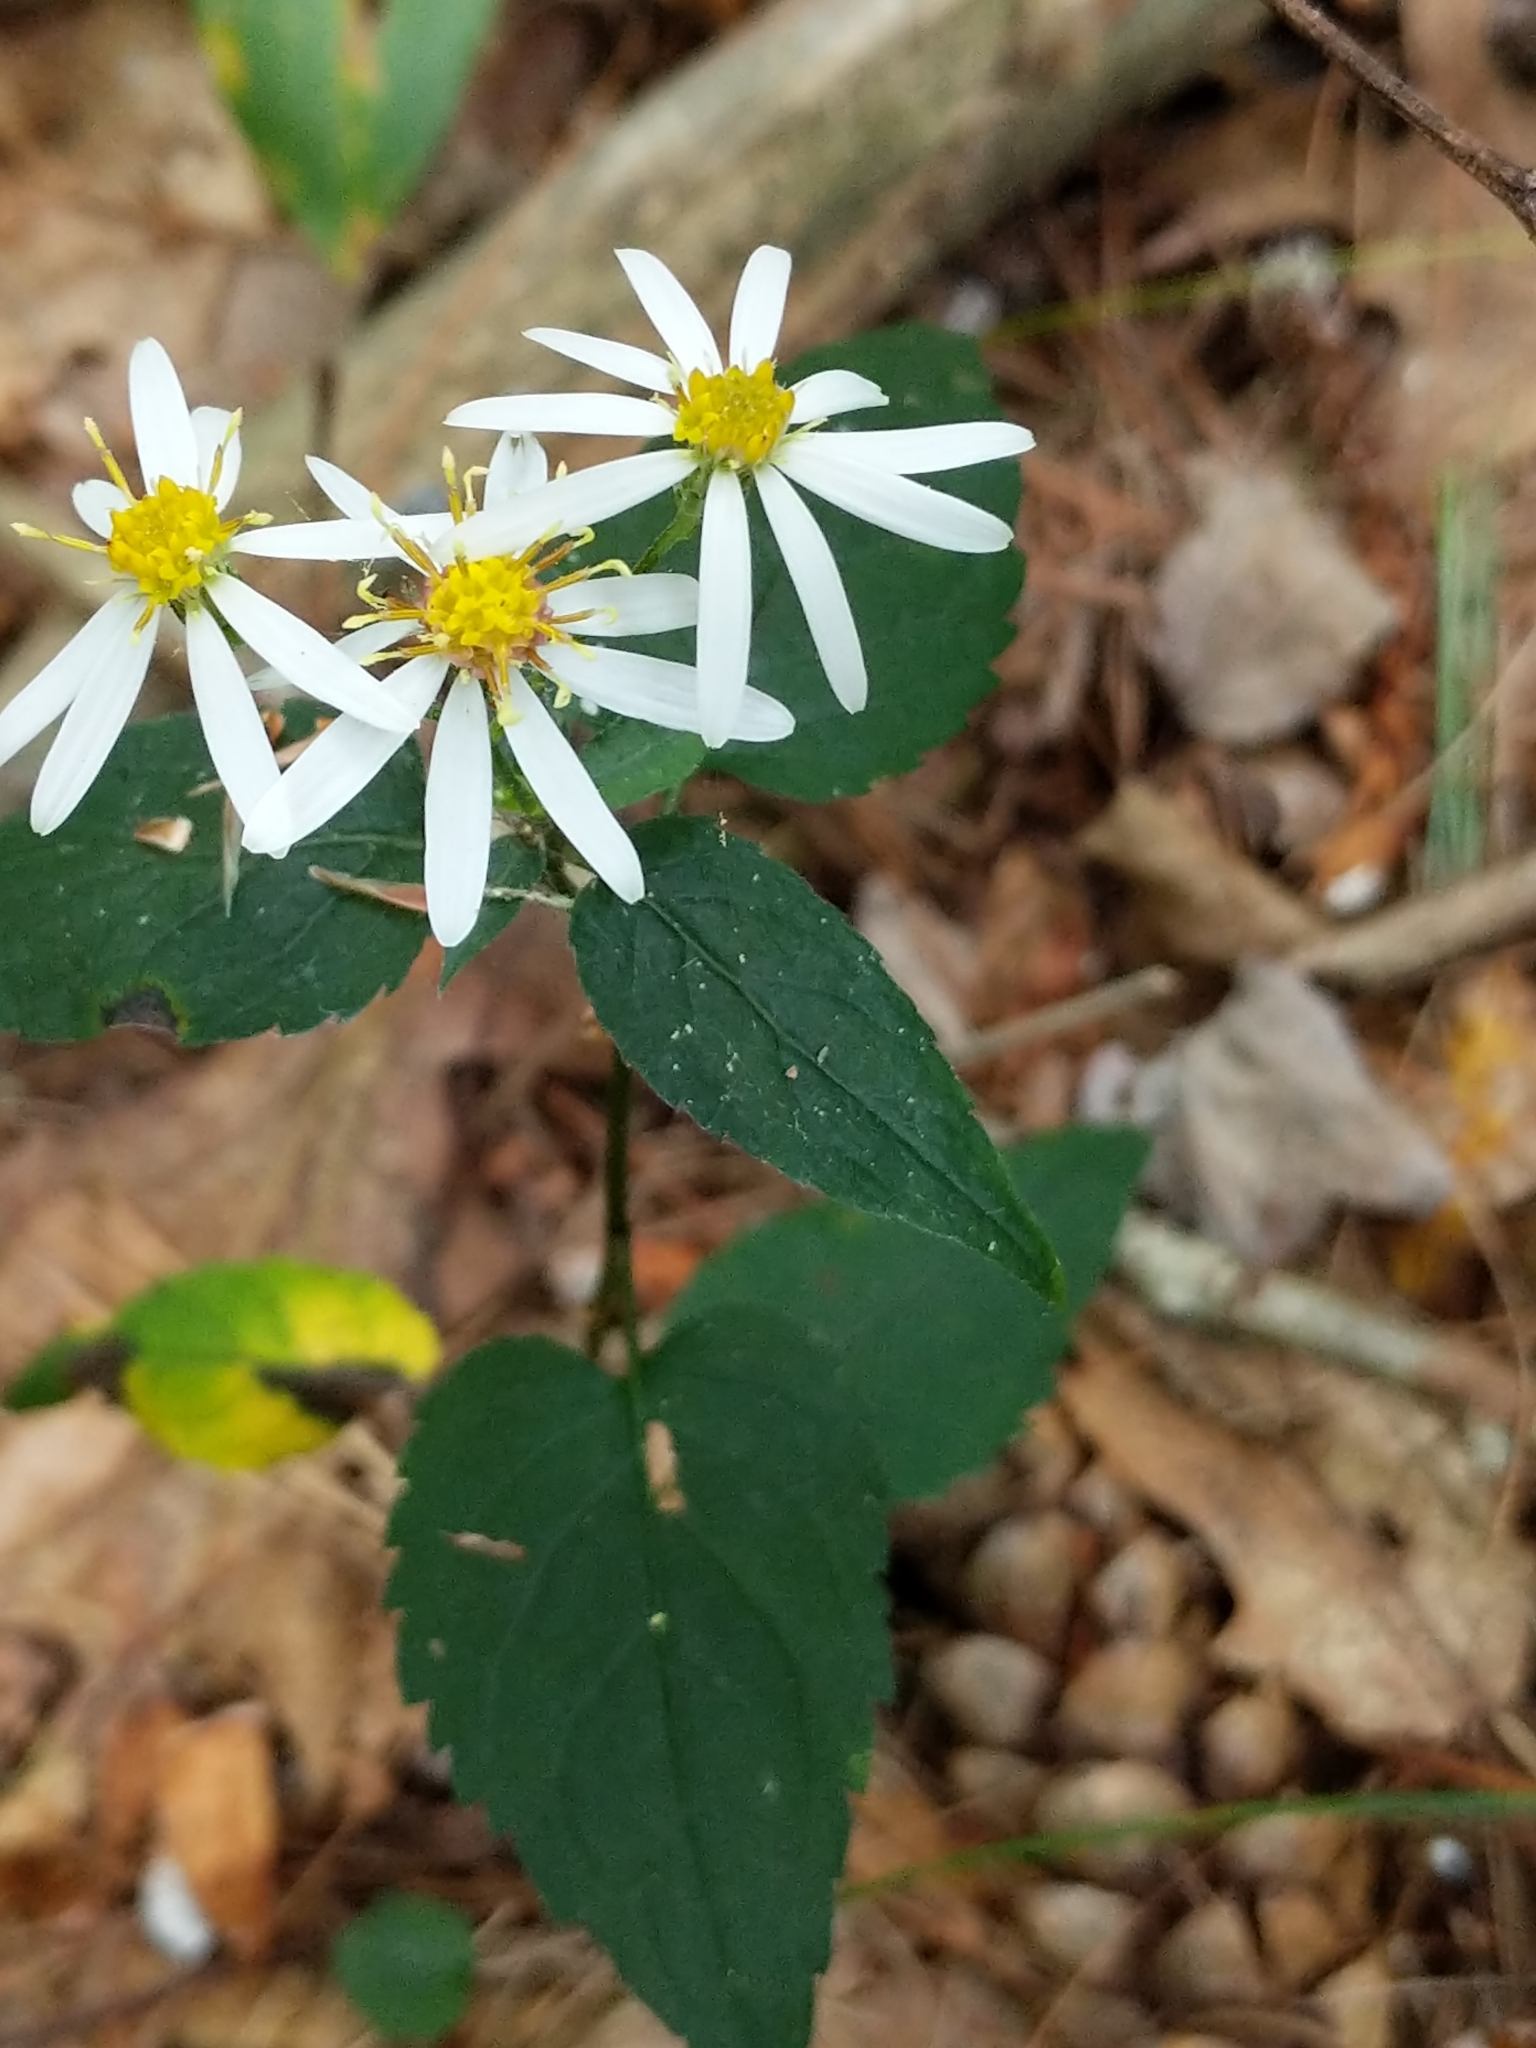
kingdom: Plantae
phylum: Tracheophyta
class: Magnoliopsida
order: Asterales
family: Asteraceae
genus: Eurybia
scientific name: Eurybia divaricata
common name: White wood aster
